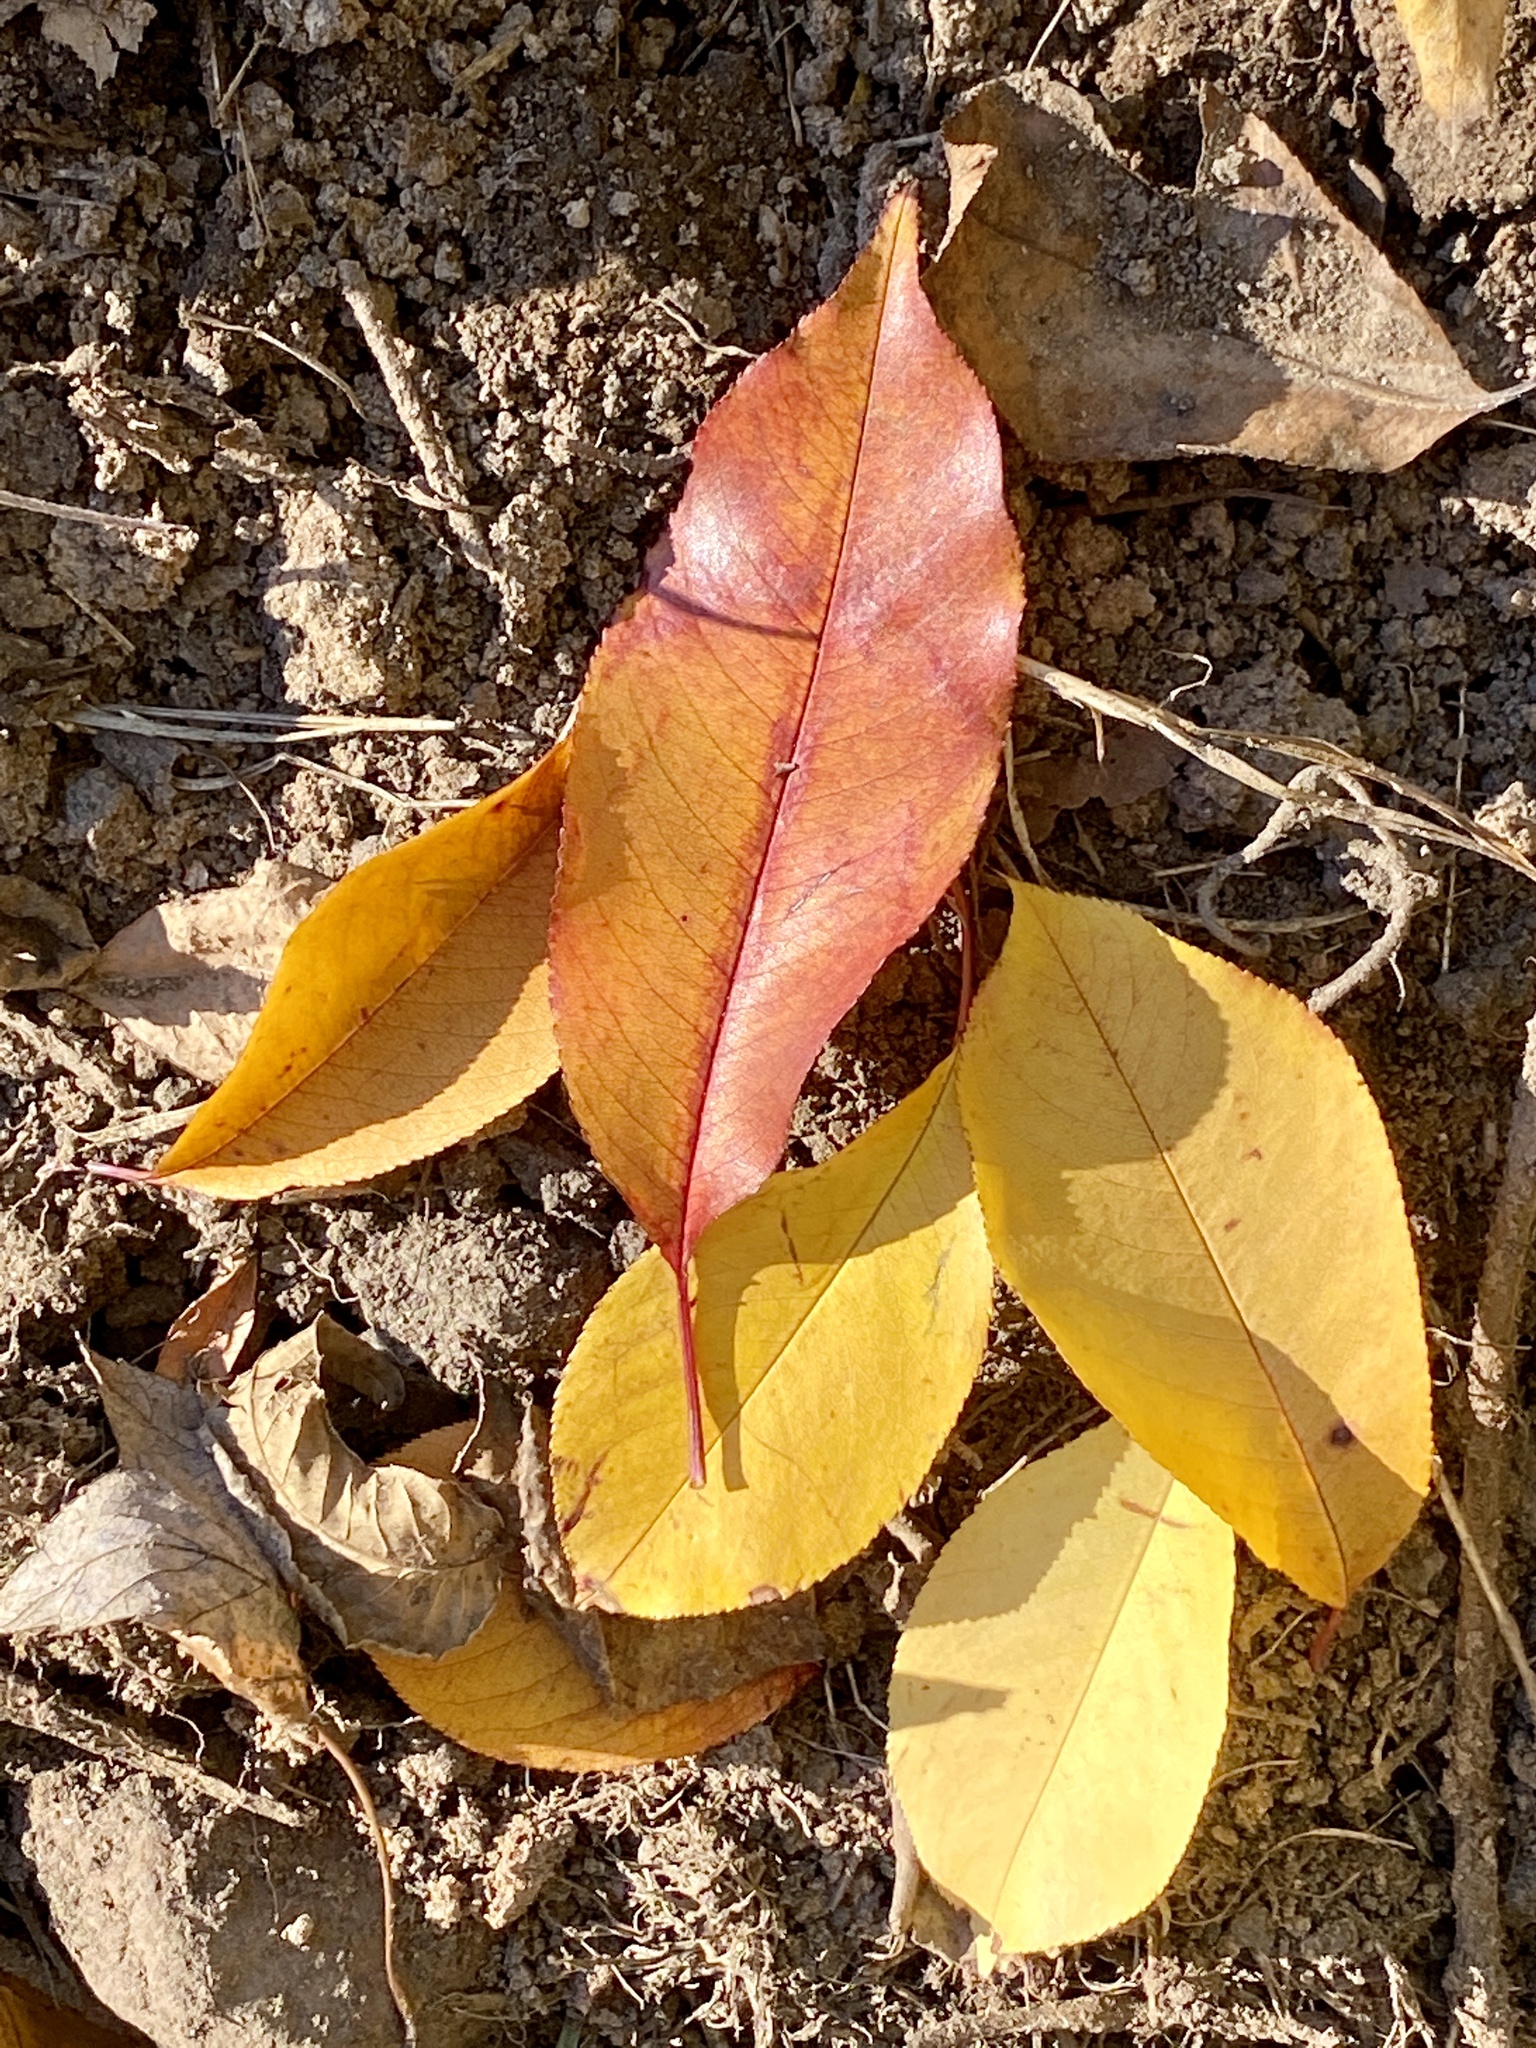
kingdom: Plantae
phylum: Tracheophyta
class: Magnoliopsida
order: Rosales
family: Rosaceae
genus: Prunus
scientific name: Prunus serotina
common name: Black cherry
